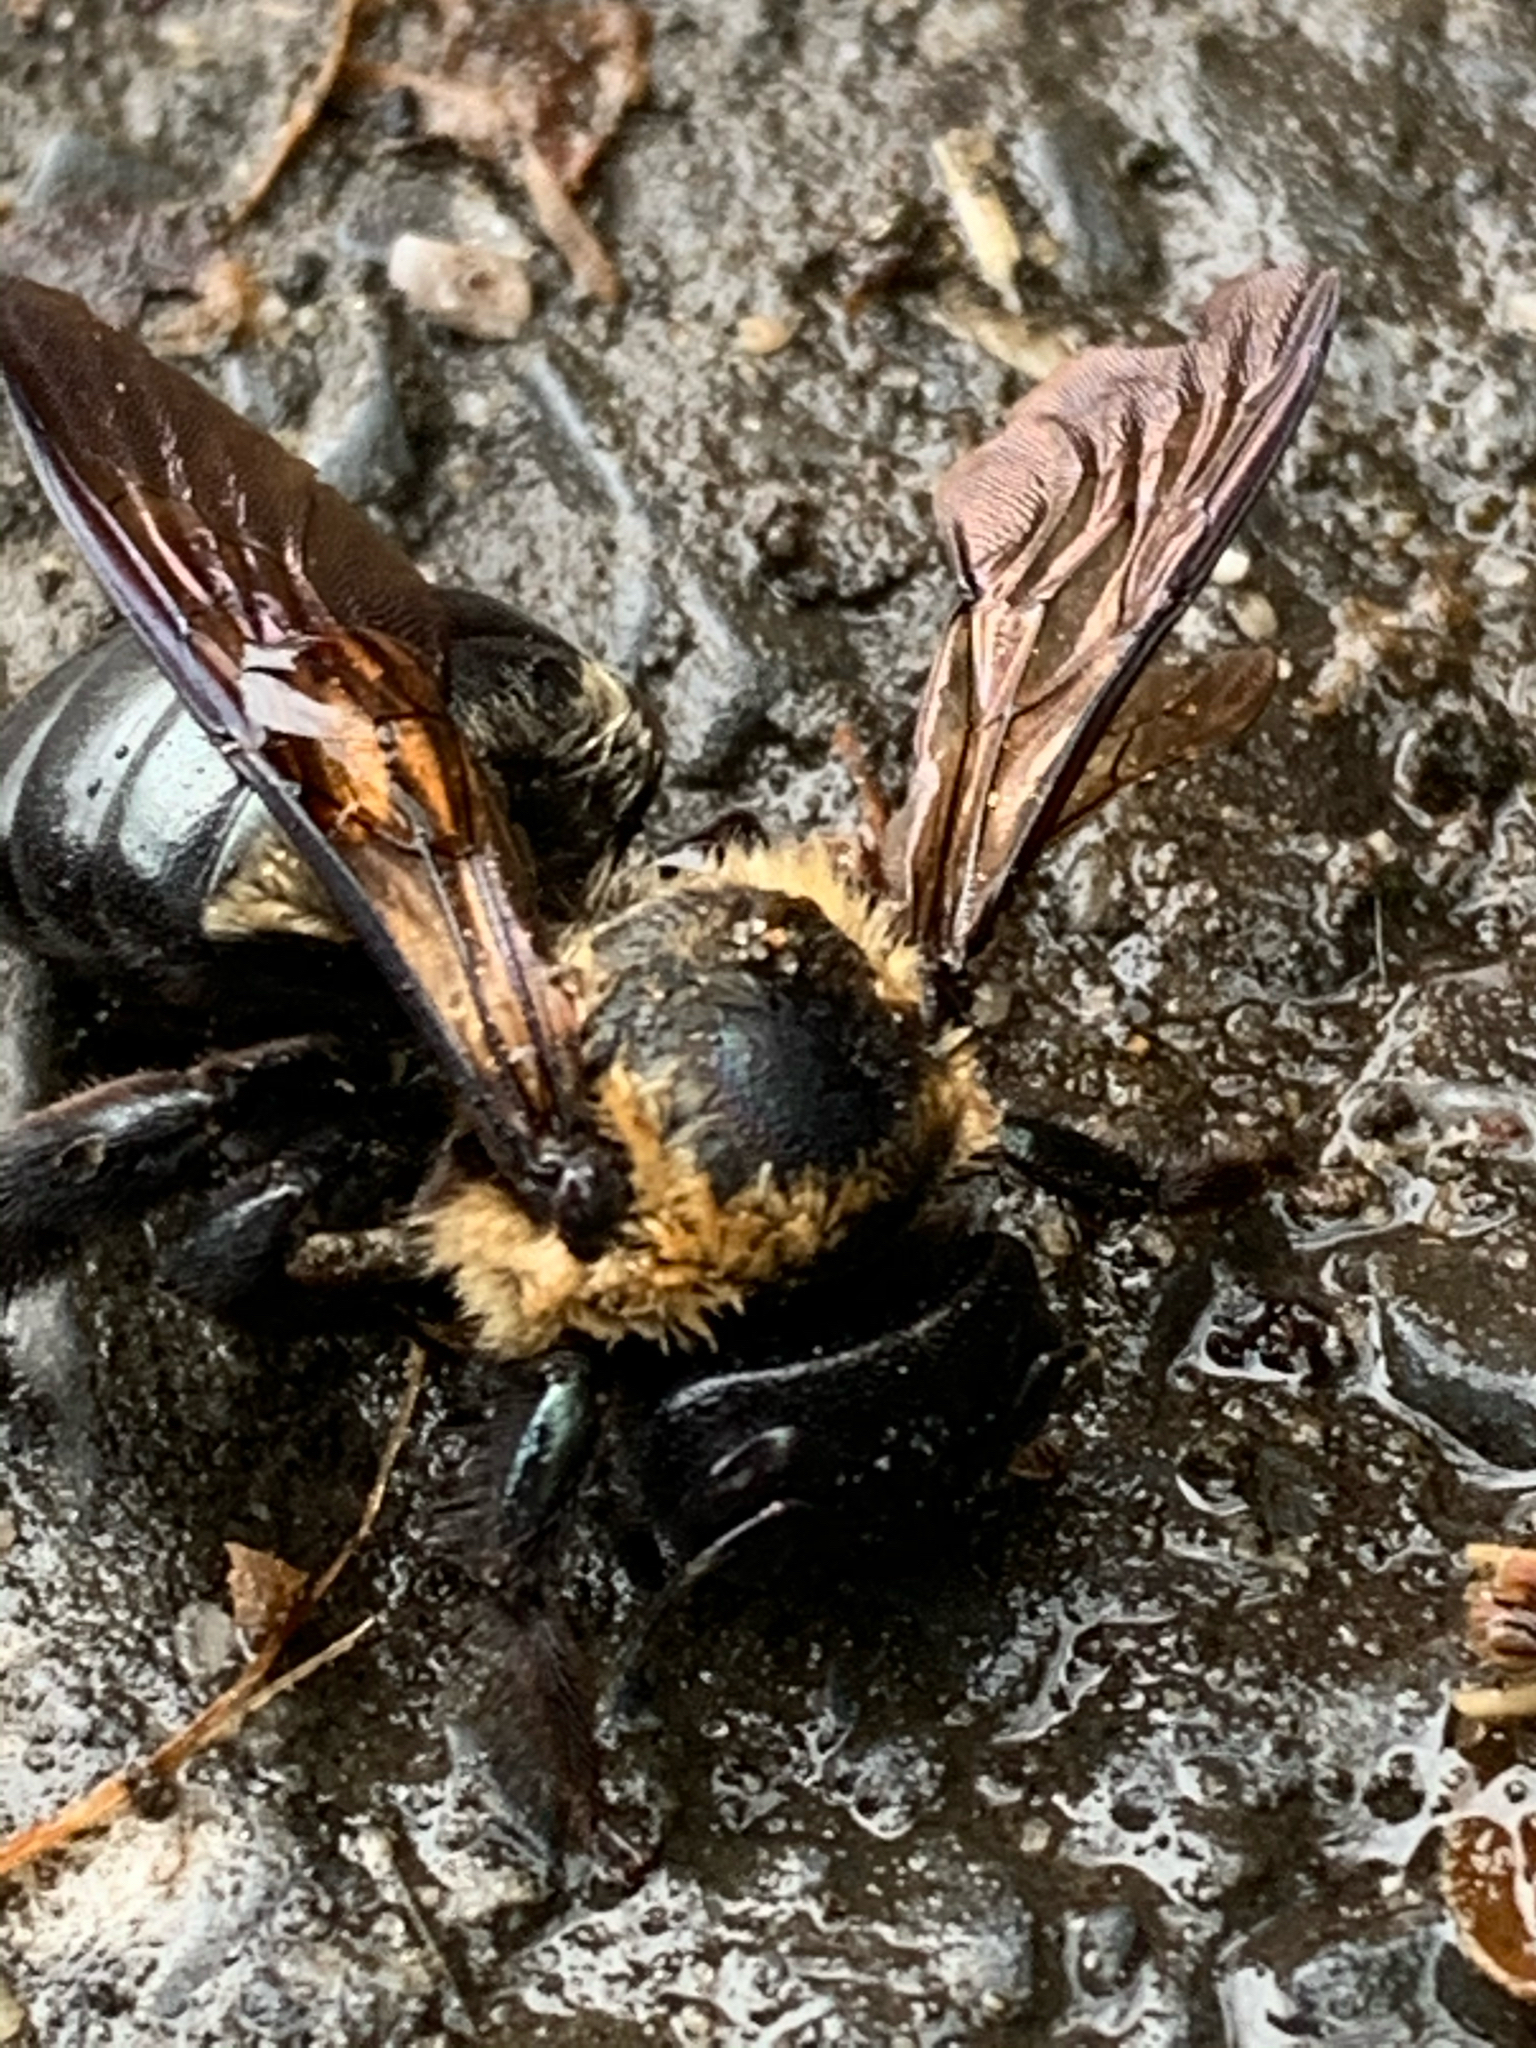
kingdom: Animalia
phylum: Arthropoda
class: Insecta
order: Hymenoptera
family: Apidae
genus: Xylocopa
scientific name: Xylocopa virginica
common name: Carpenter bee
